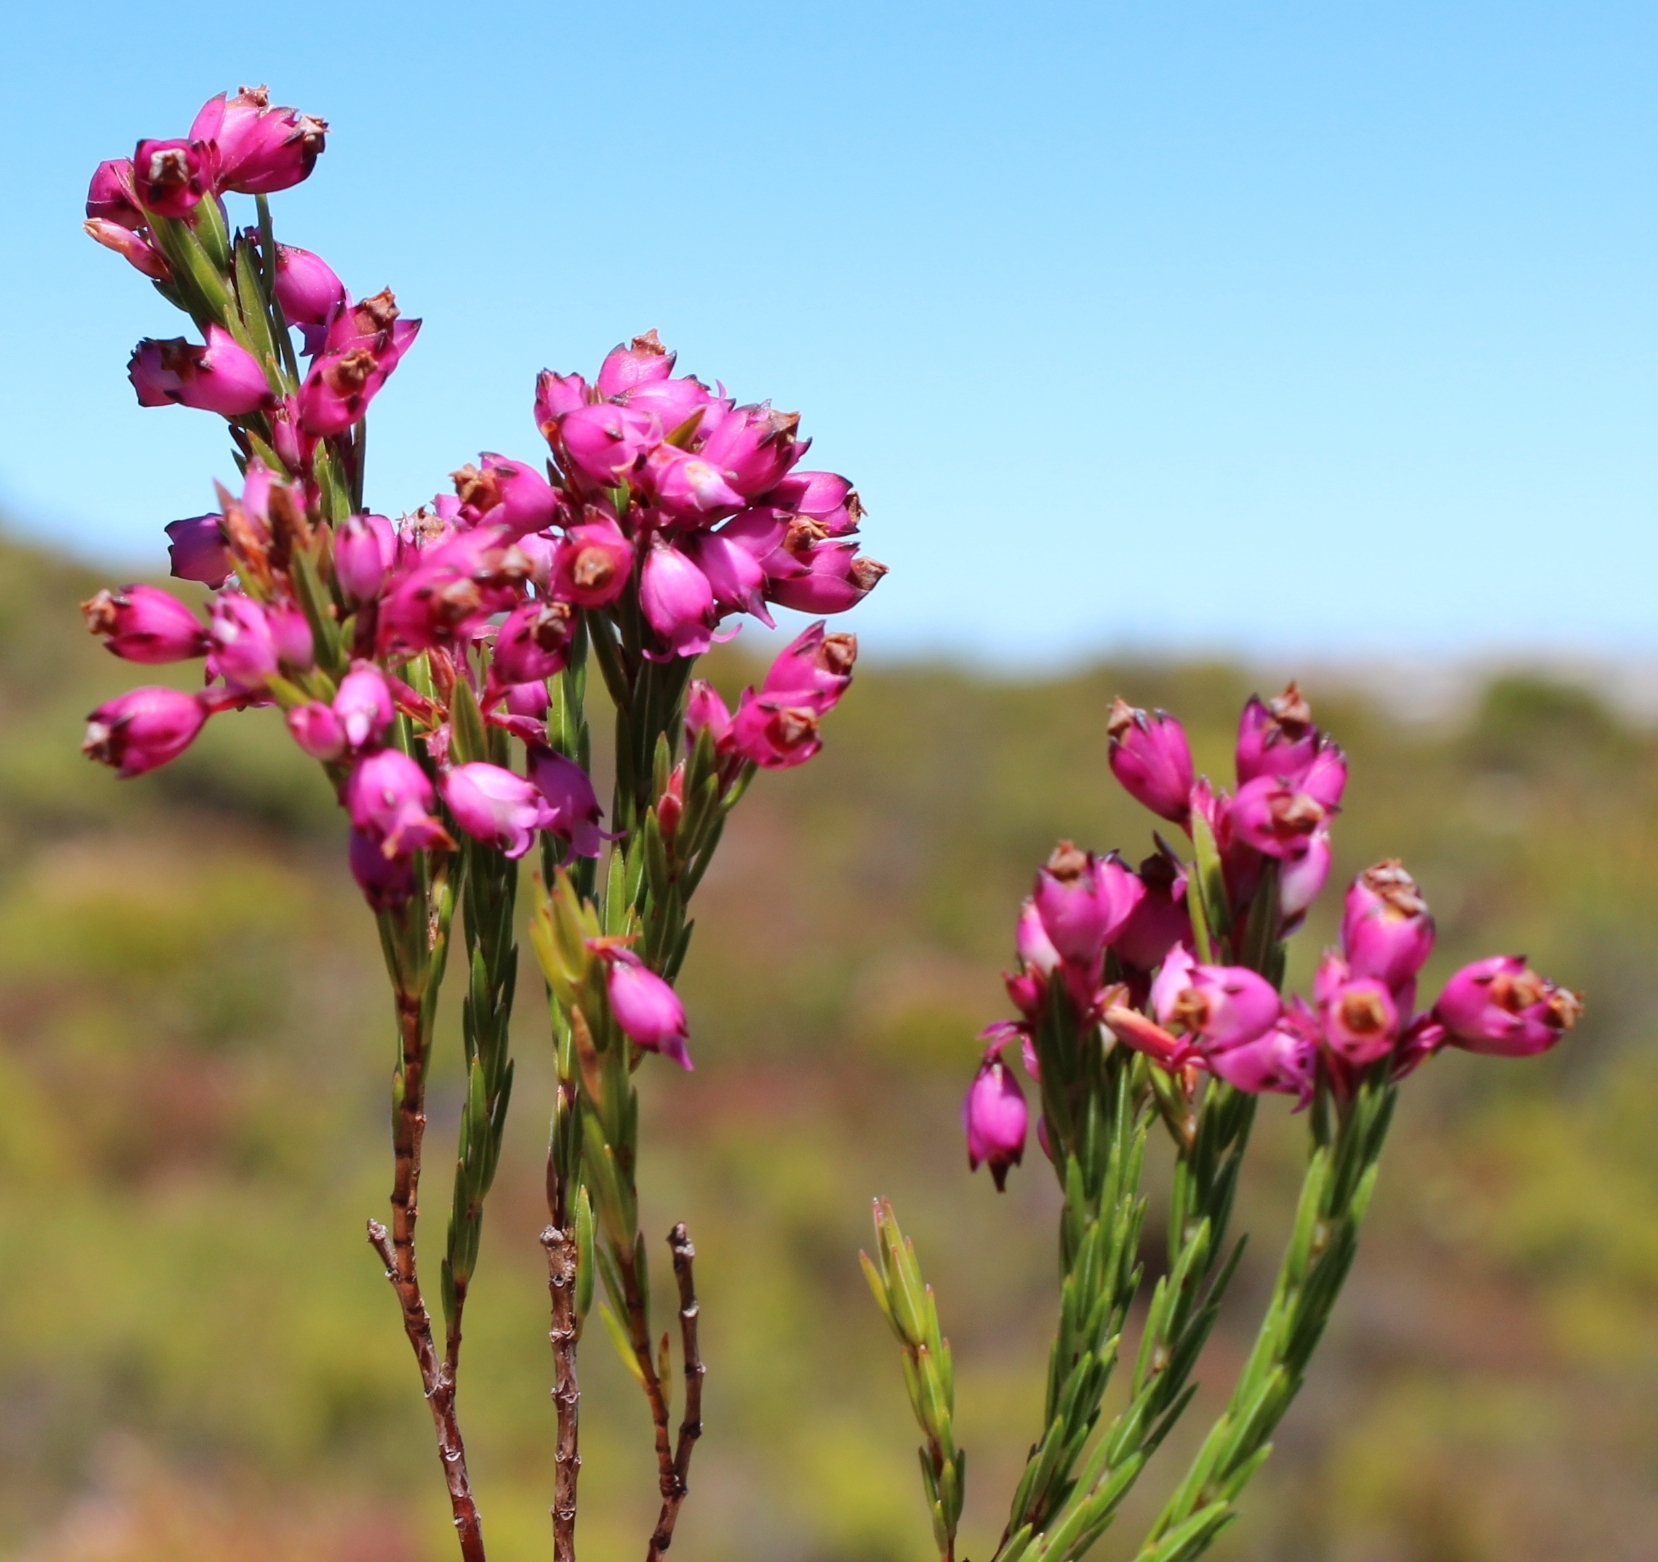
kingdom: Plantae
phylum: Tracheophyta
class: Magnoliopsida
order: Ericales
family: Ericaceae
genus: Erica
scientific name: Erica corifolia
